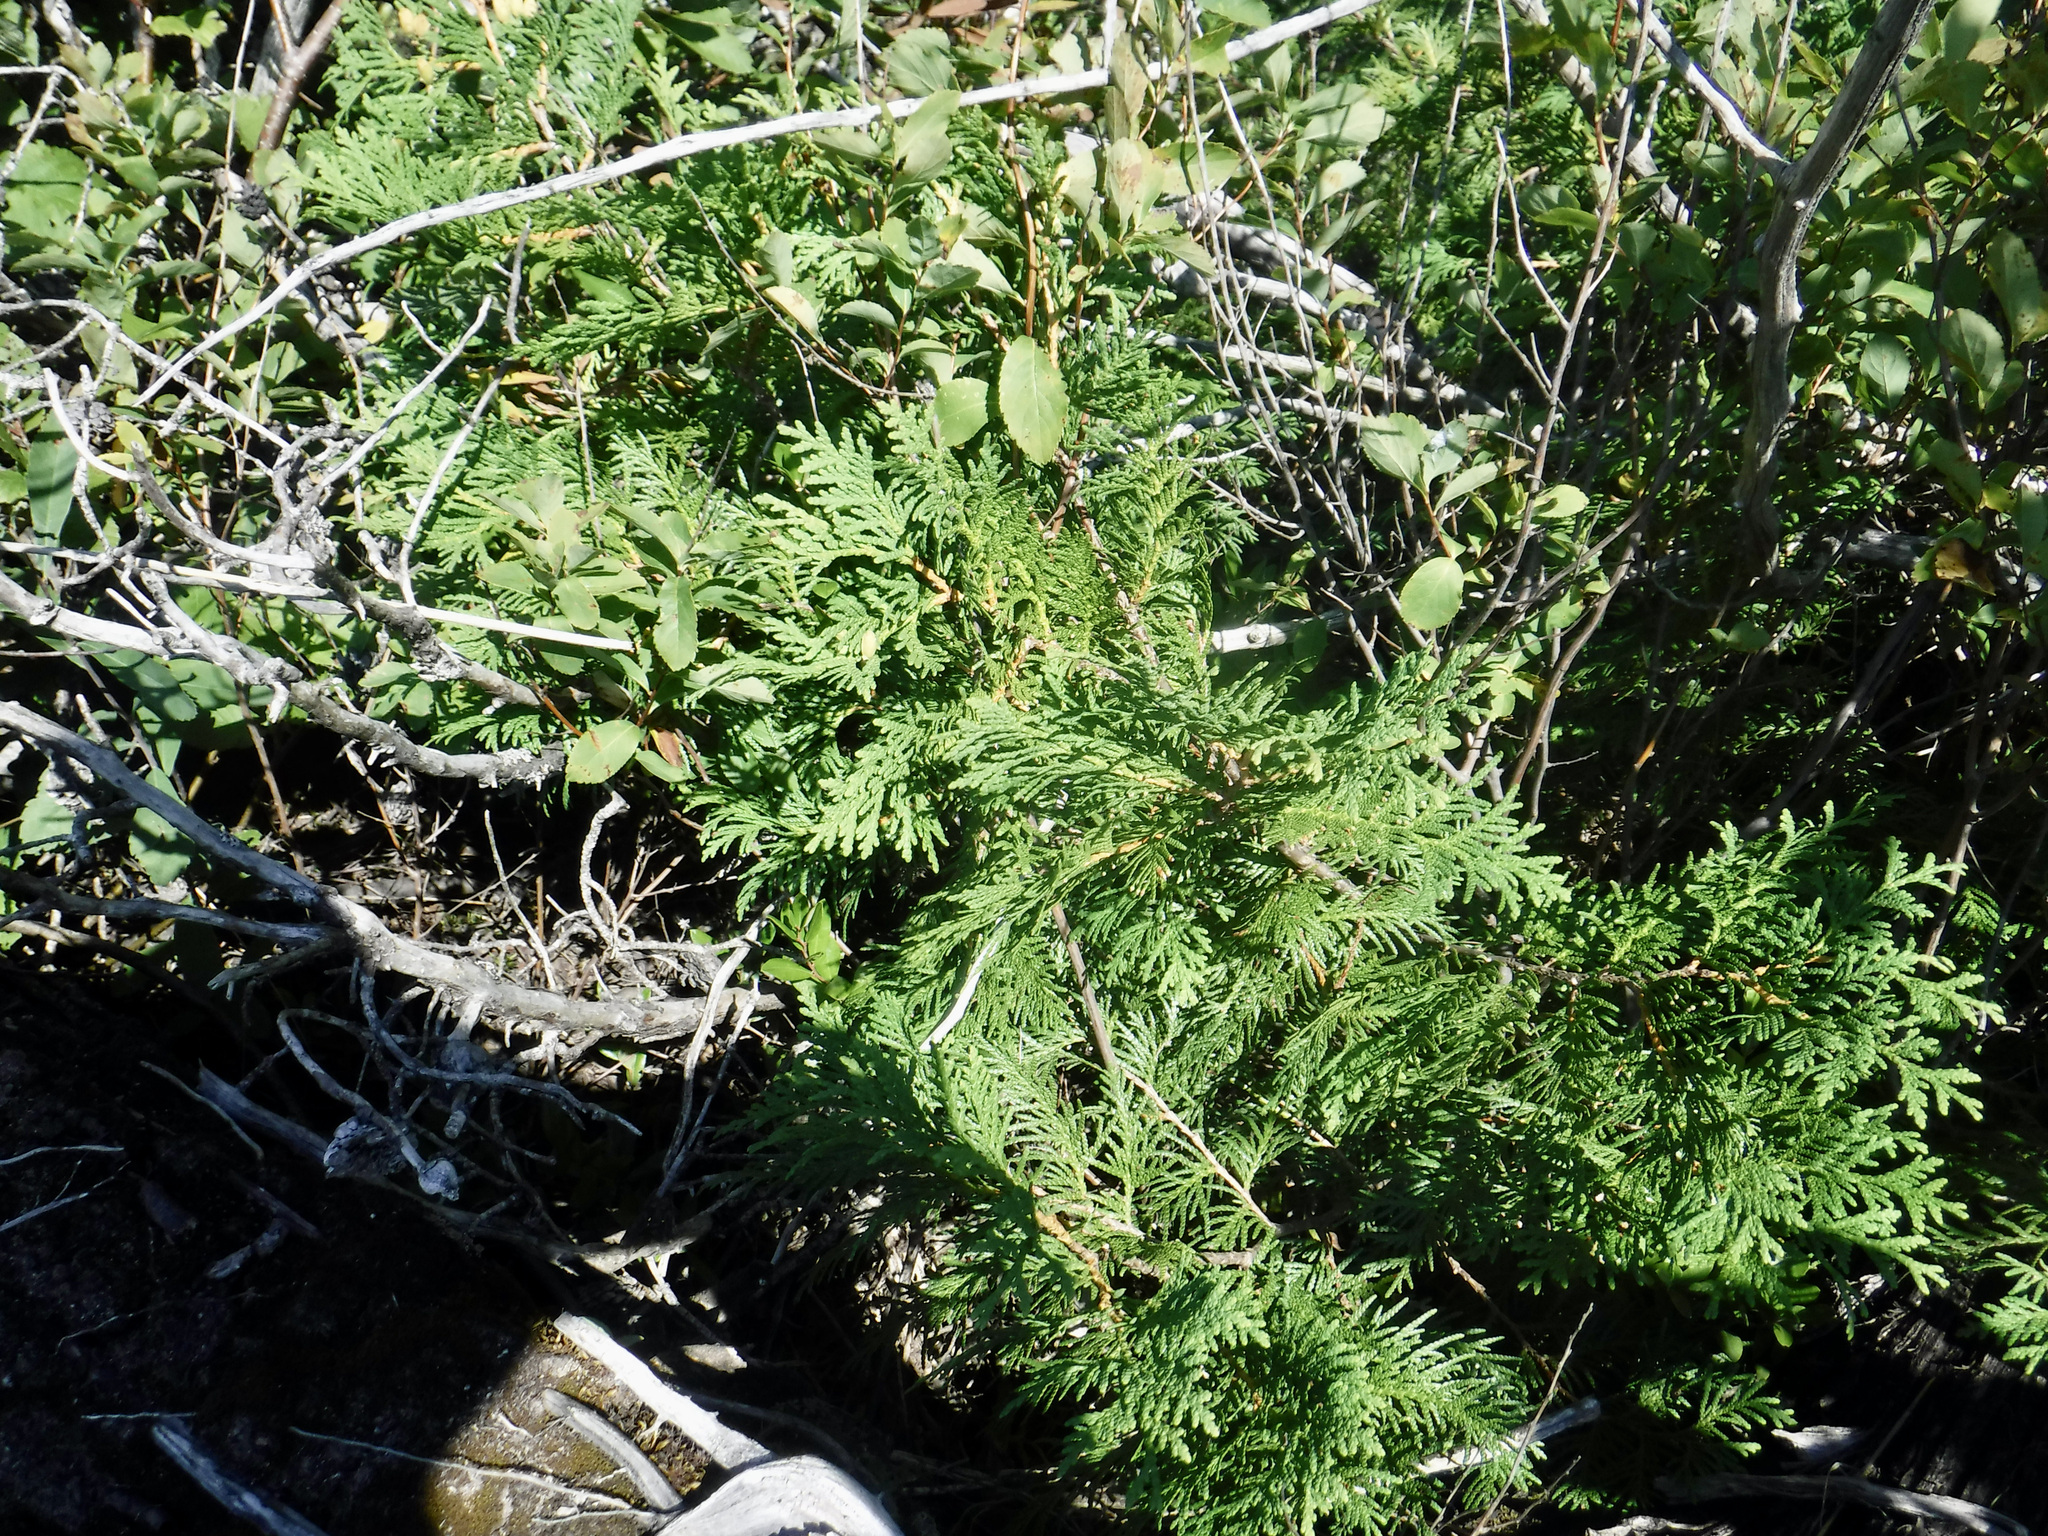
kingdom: Plantae
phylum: Tracheophyta
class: Pinopsida
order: Pinales
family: Cupressaceae
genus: Thuja
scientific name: Thuja occidentalis
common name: Northern white-cedar
